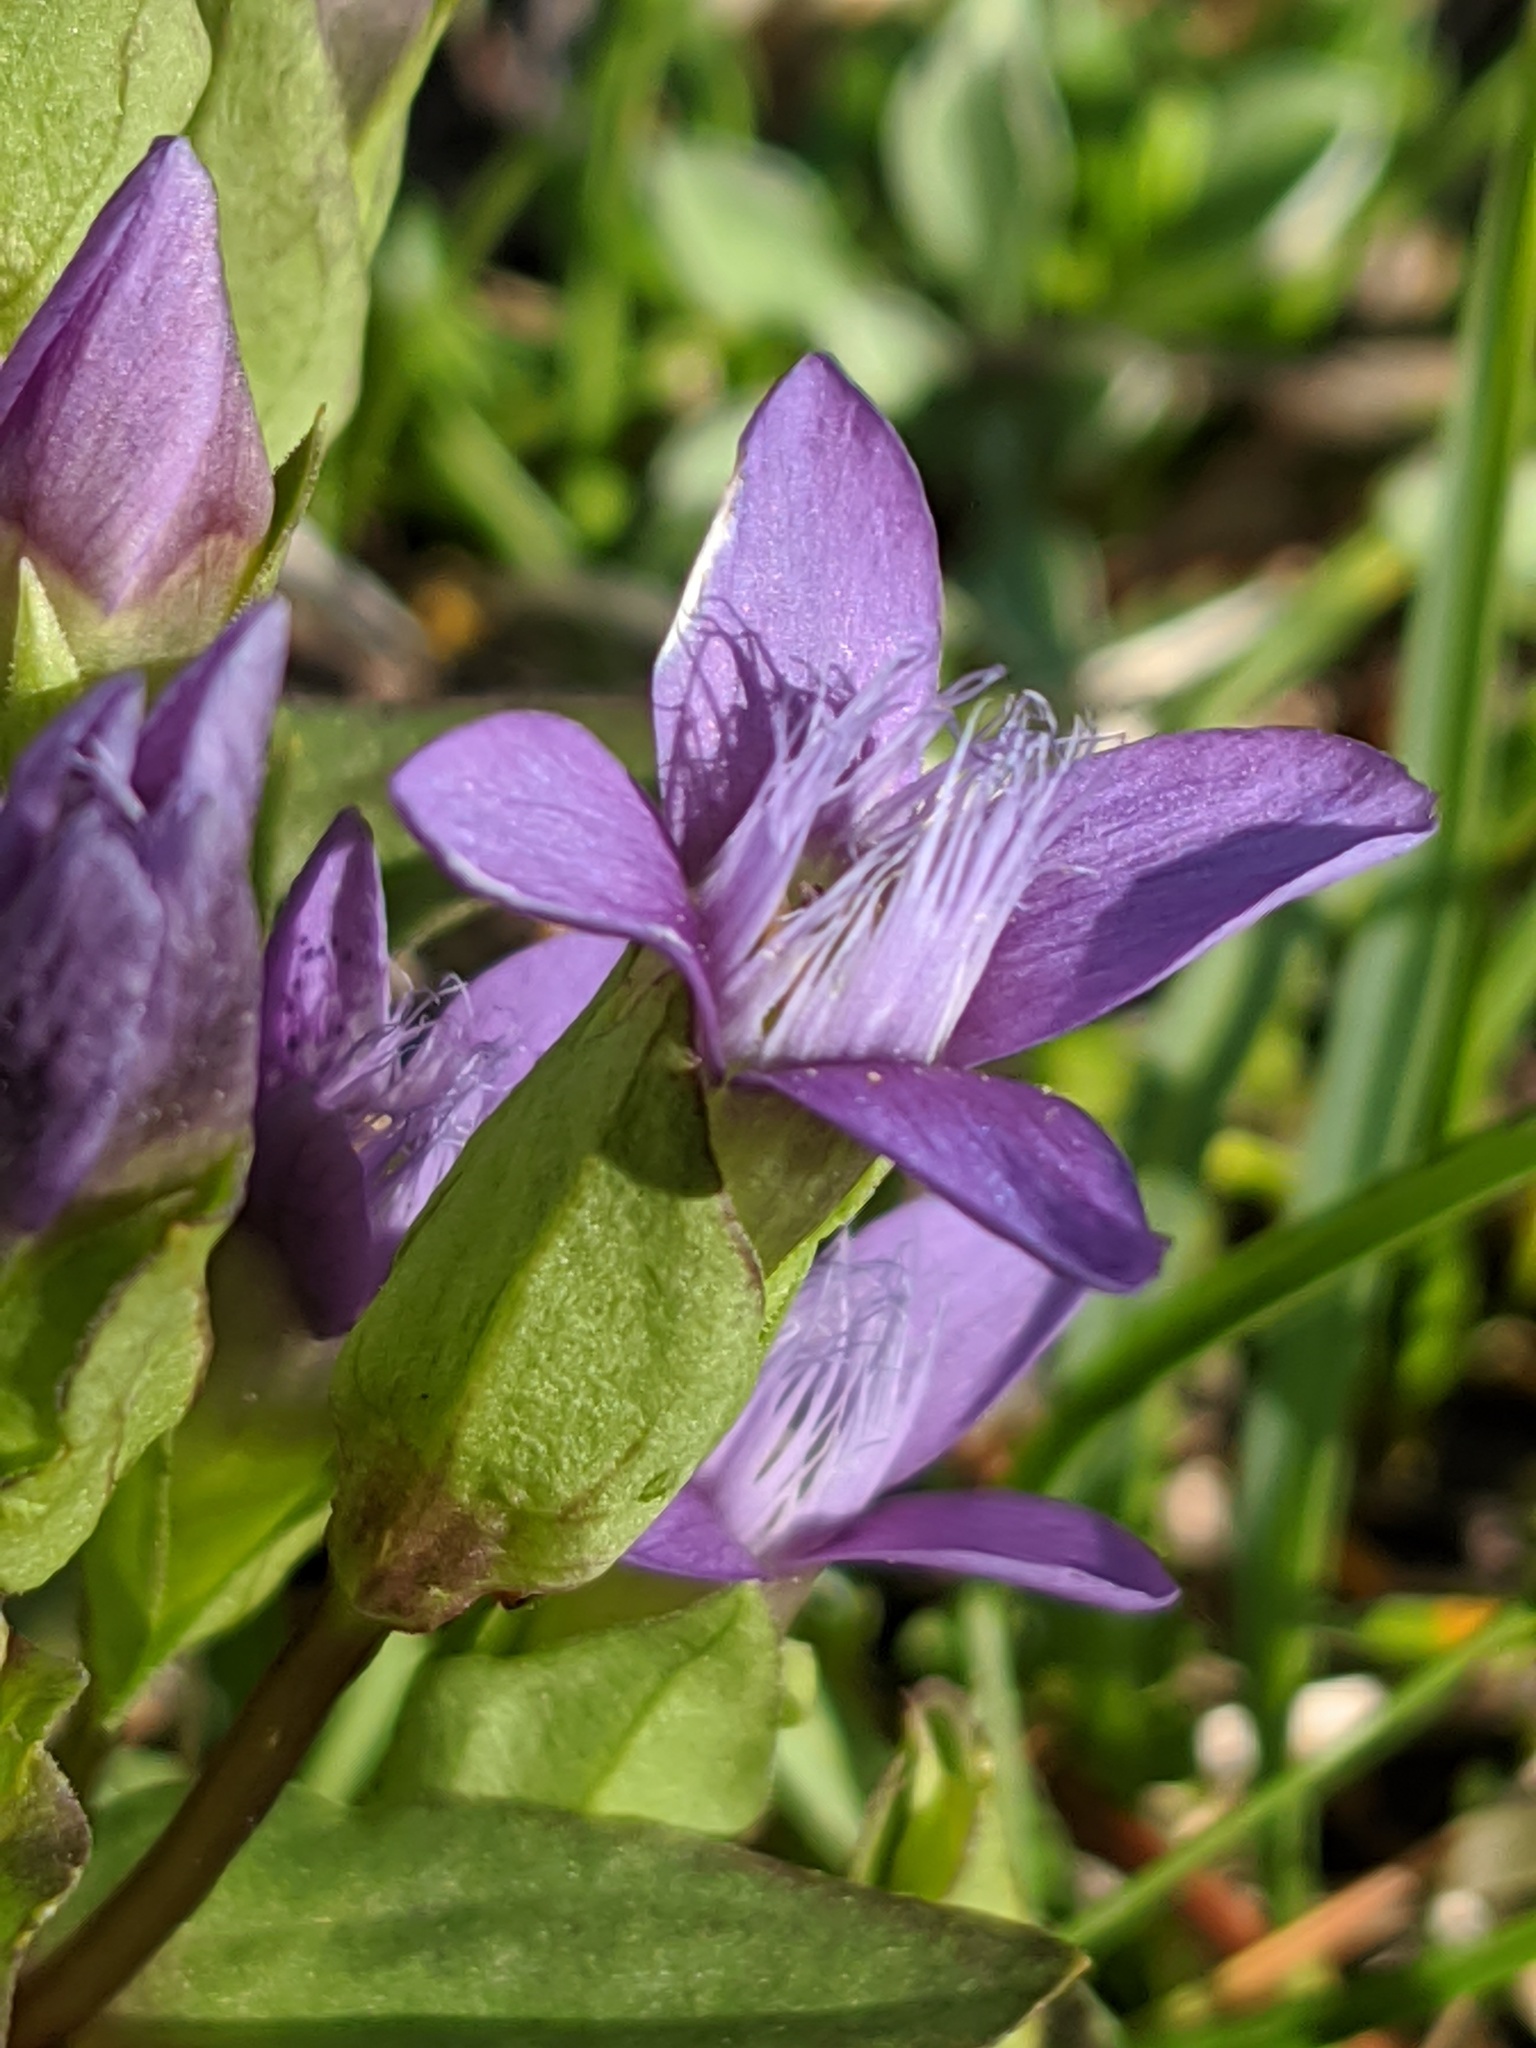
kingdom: Plantae
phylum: Tracheophyta
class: Magnoliopsida
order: Gentianales
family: Gentianaceae
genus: Gentianella
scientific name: Gentianella campestris
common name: Field gentian
